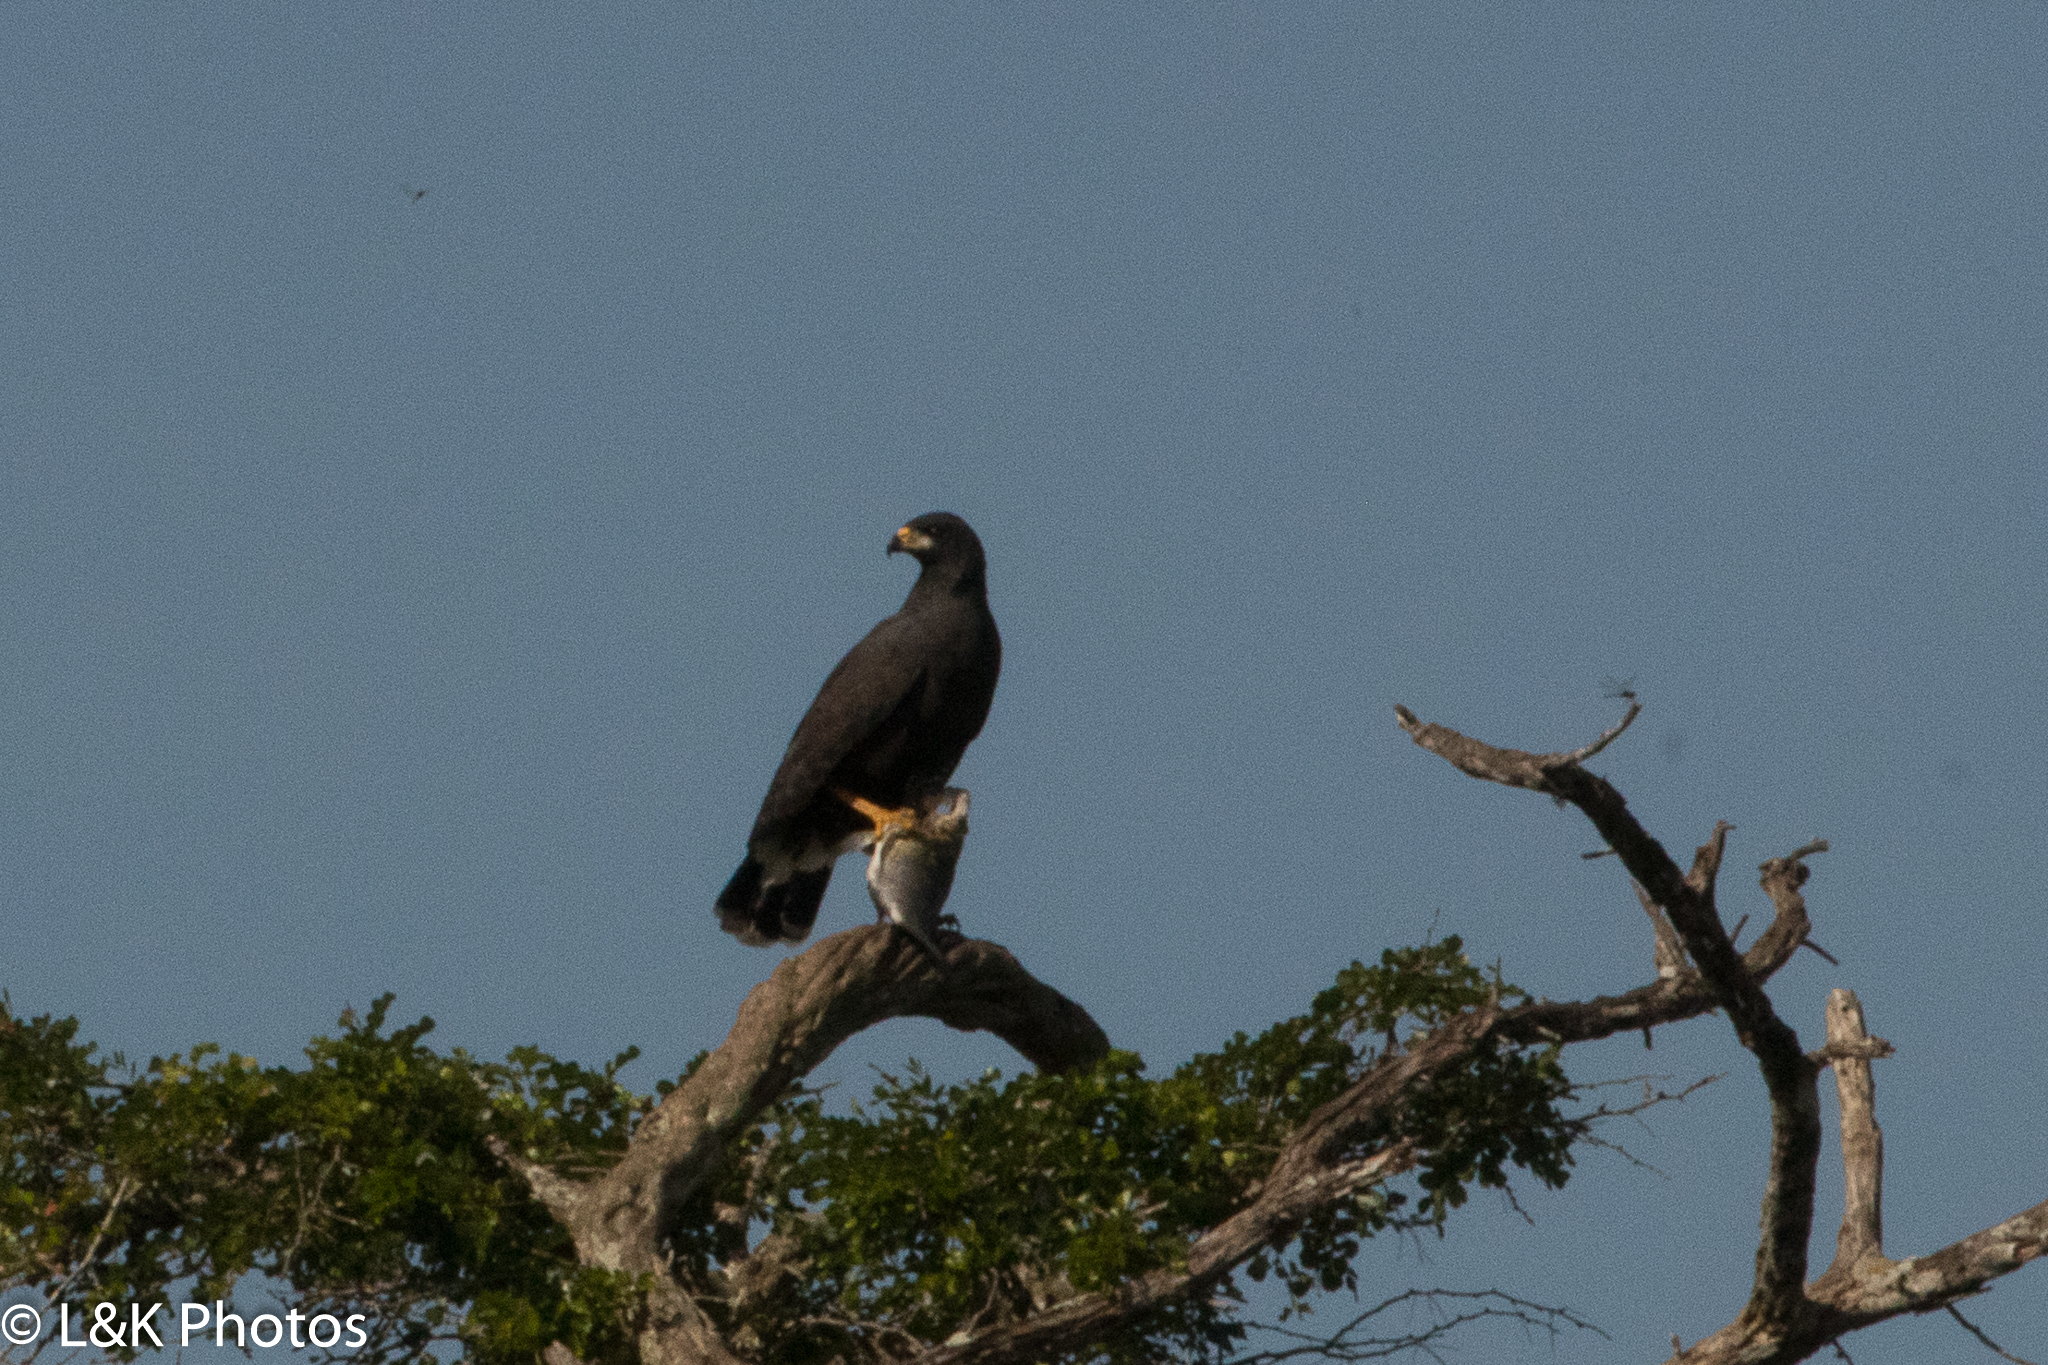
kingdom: Animalia
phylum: Chordata
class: Aves
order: Accipitriformes
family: Accipitridae
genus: Buteogallus
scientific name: Buteogallus anthracinus
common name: Common black hawk
